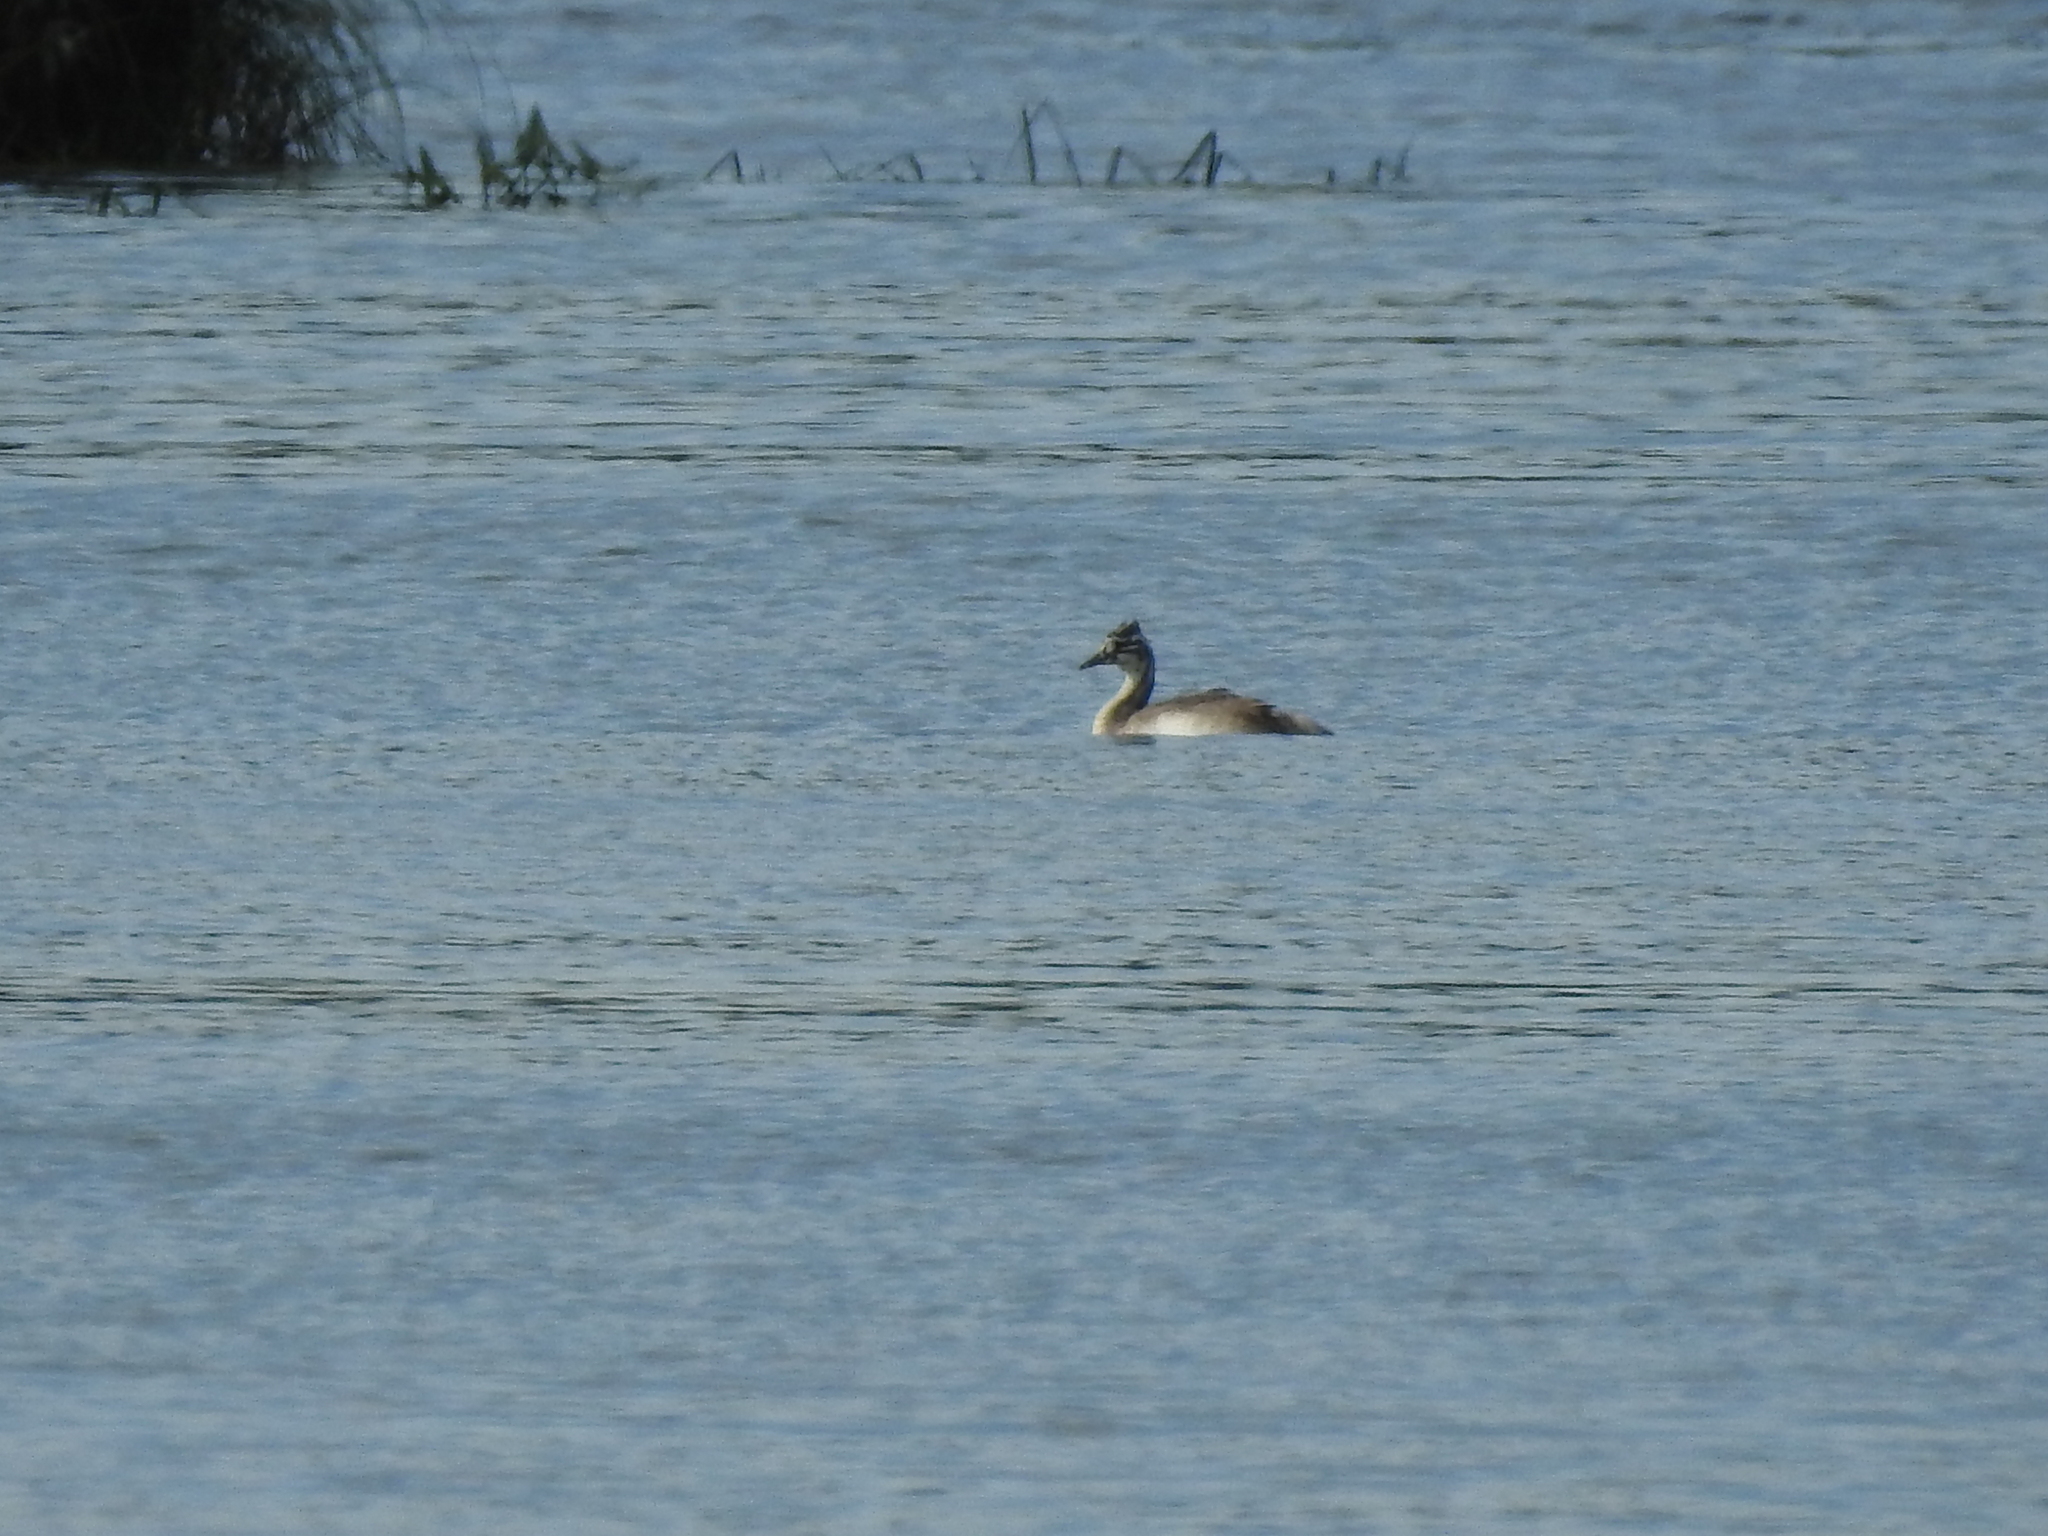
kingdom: Animalia
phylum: Chordata
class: Aves
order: Podicipediformes
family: Podicipedidae
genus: Podiceps
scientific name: Podiceps cristatus
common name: Great crested grebe
